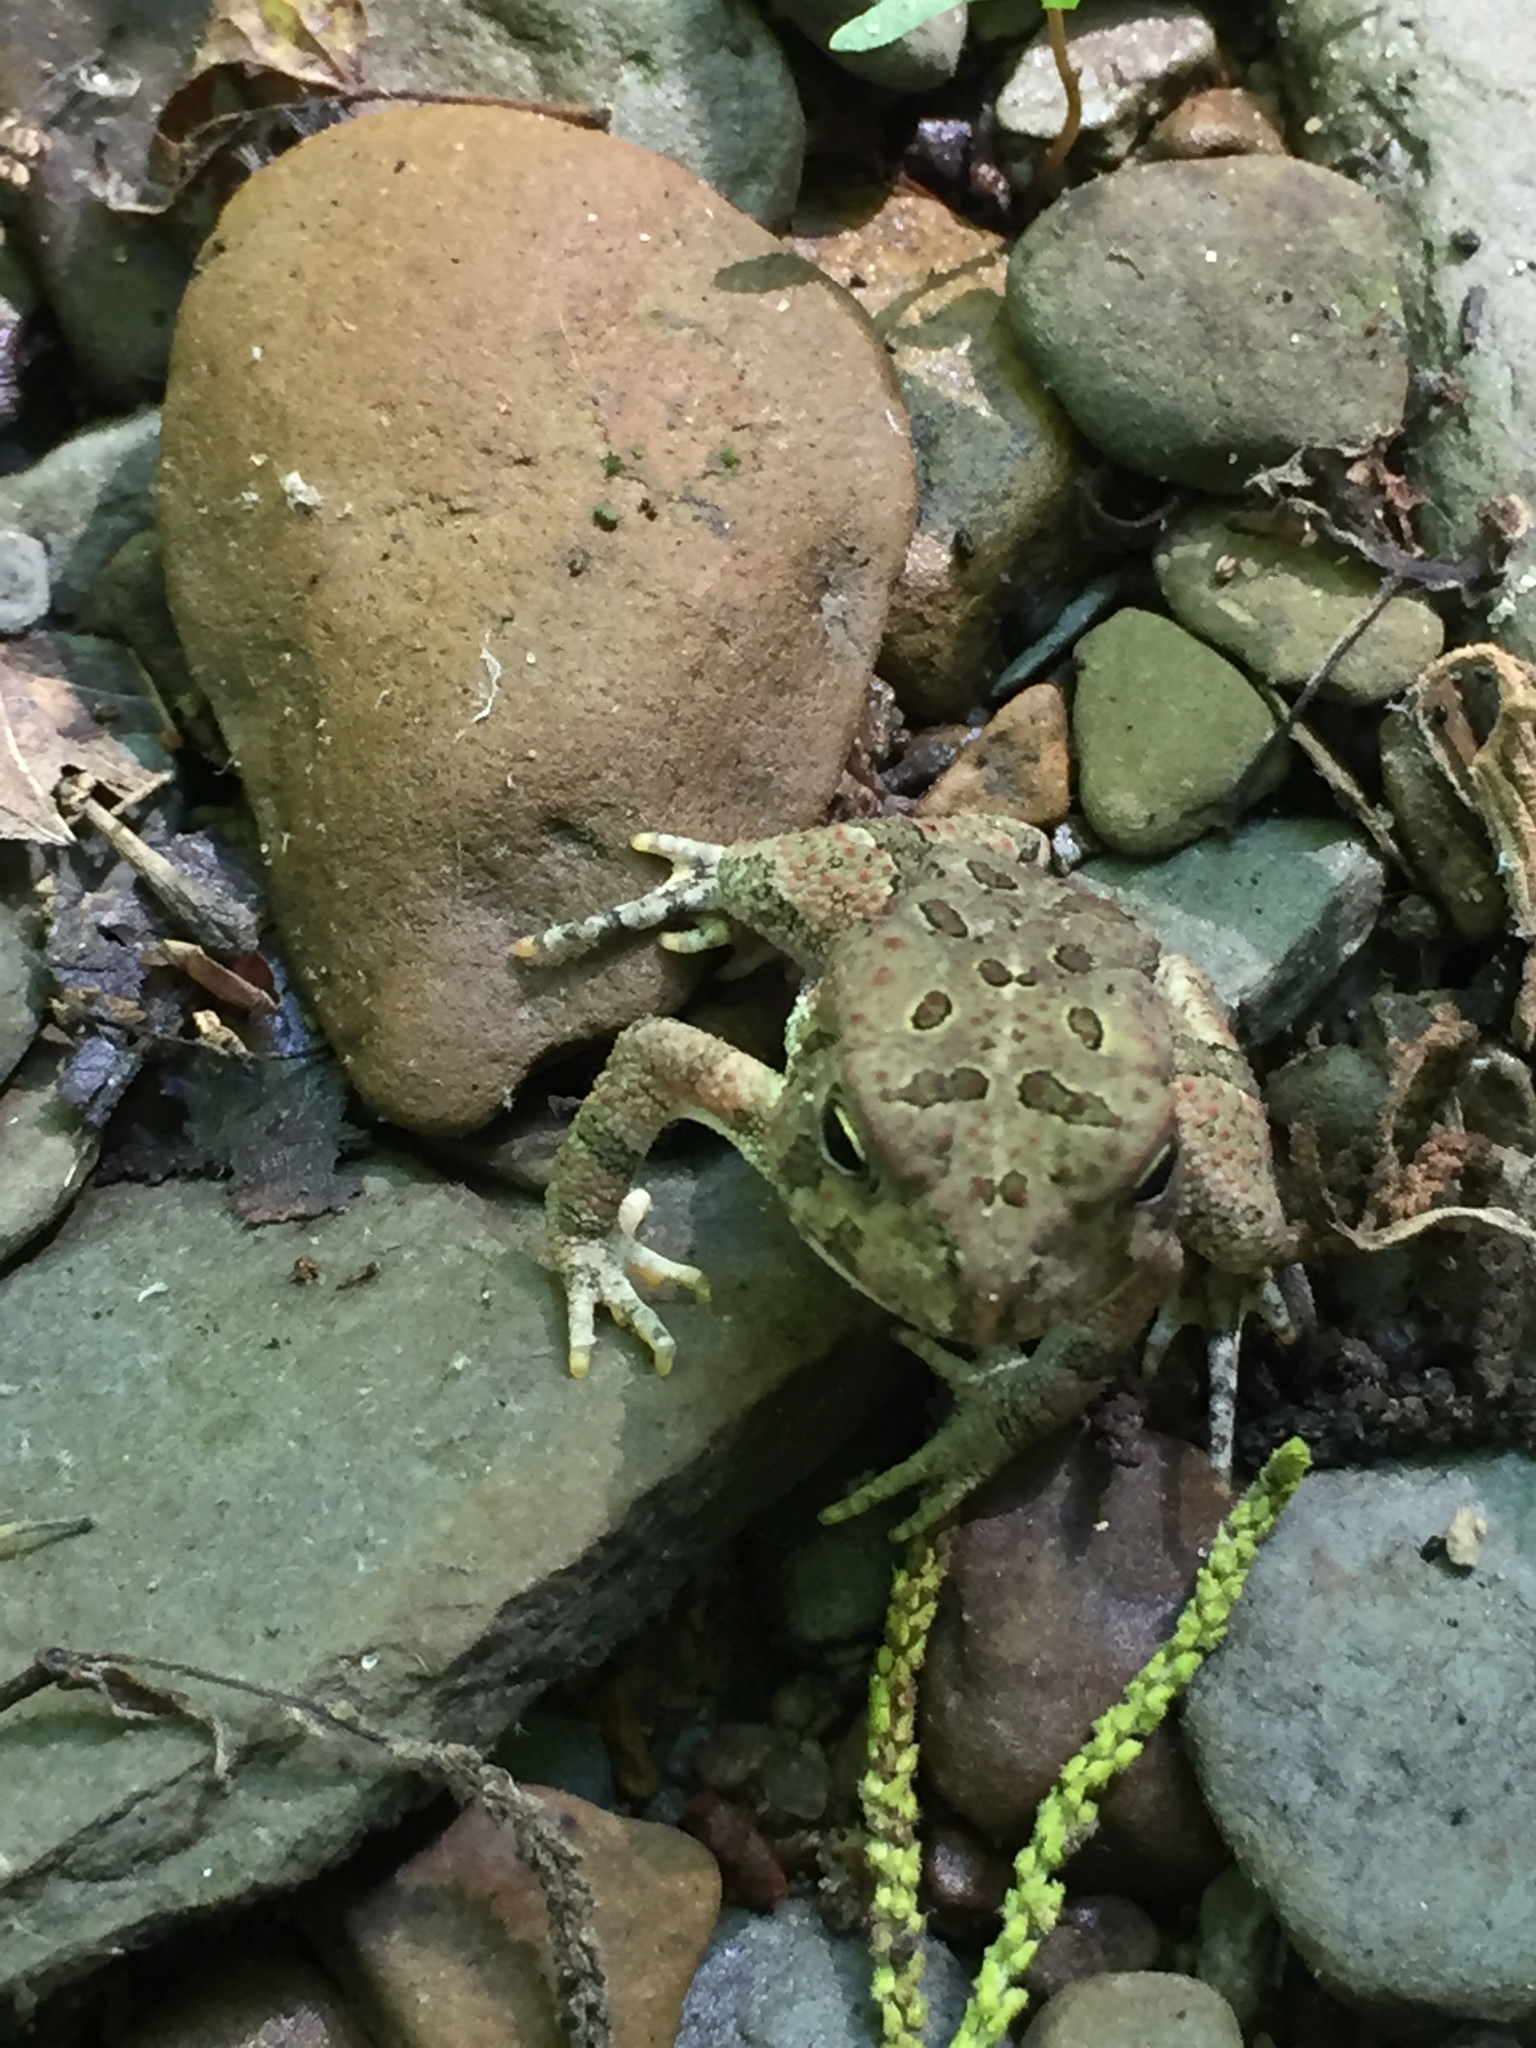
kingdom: Animalia
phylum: Chordata
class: Amphibia
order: Anura
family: Bufonidae
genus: Anaxyrus
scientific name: Anaxyrus fowleri
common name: Fowler's toad
